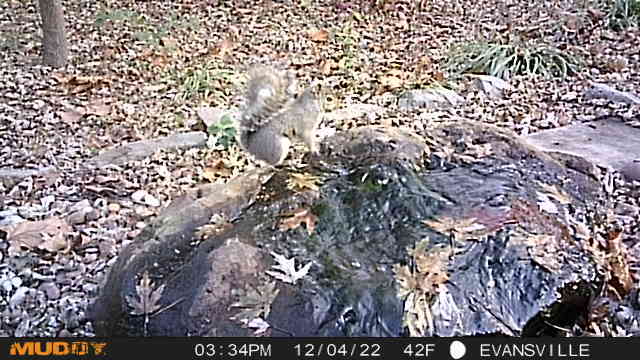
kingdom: Animalia
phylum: Chordata
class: Mammalia
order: Rodentia
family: Sciuridae
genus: Sciurus
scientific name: Sciurus carolinensis
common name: Eastern gray squirrel
